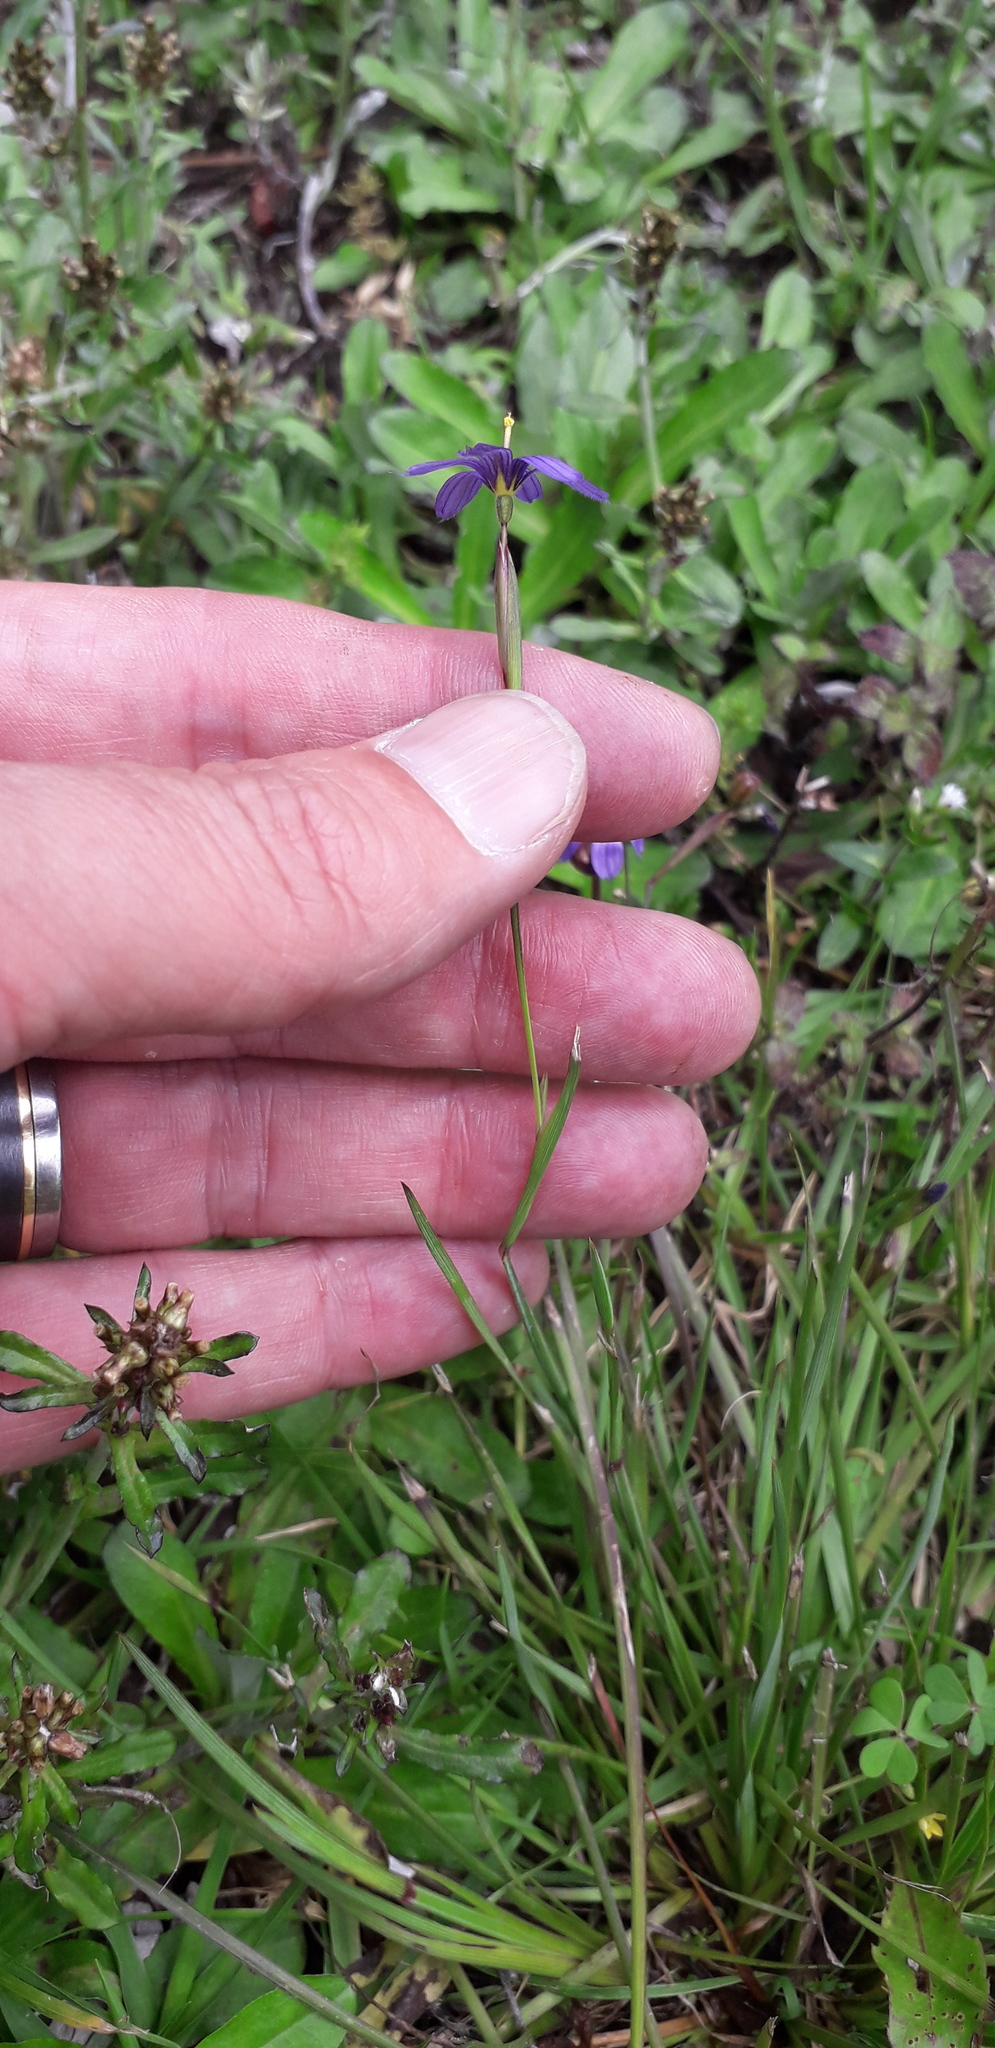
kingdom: Plantae
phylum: Tracheophyta
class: Liliopsida
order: Asparagales
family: Iridaceae
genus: Sisyrinchium
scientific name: Sisyrinchium chilense
